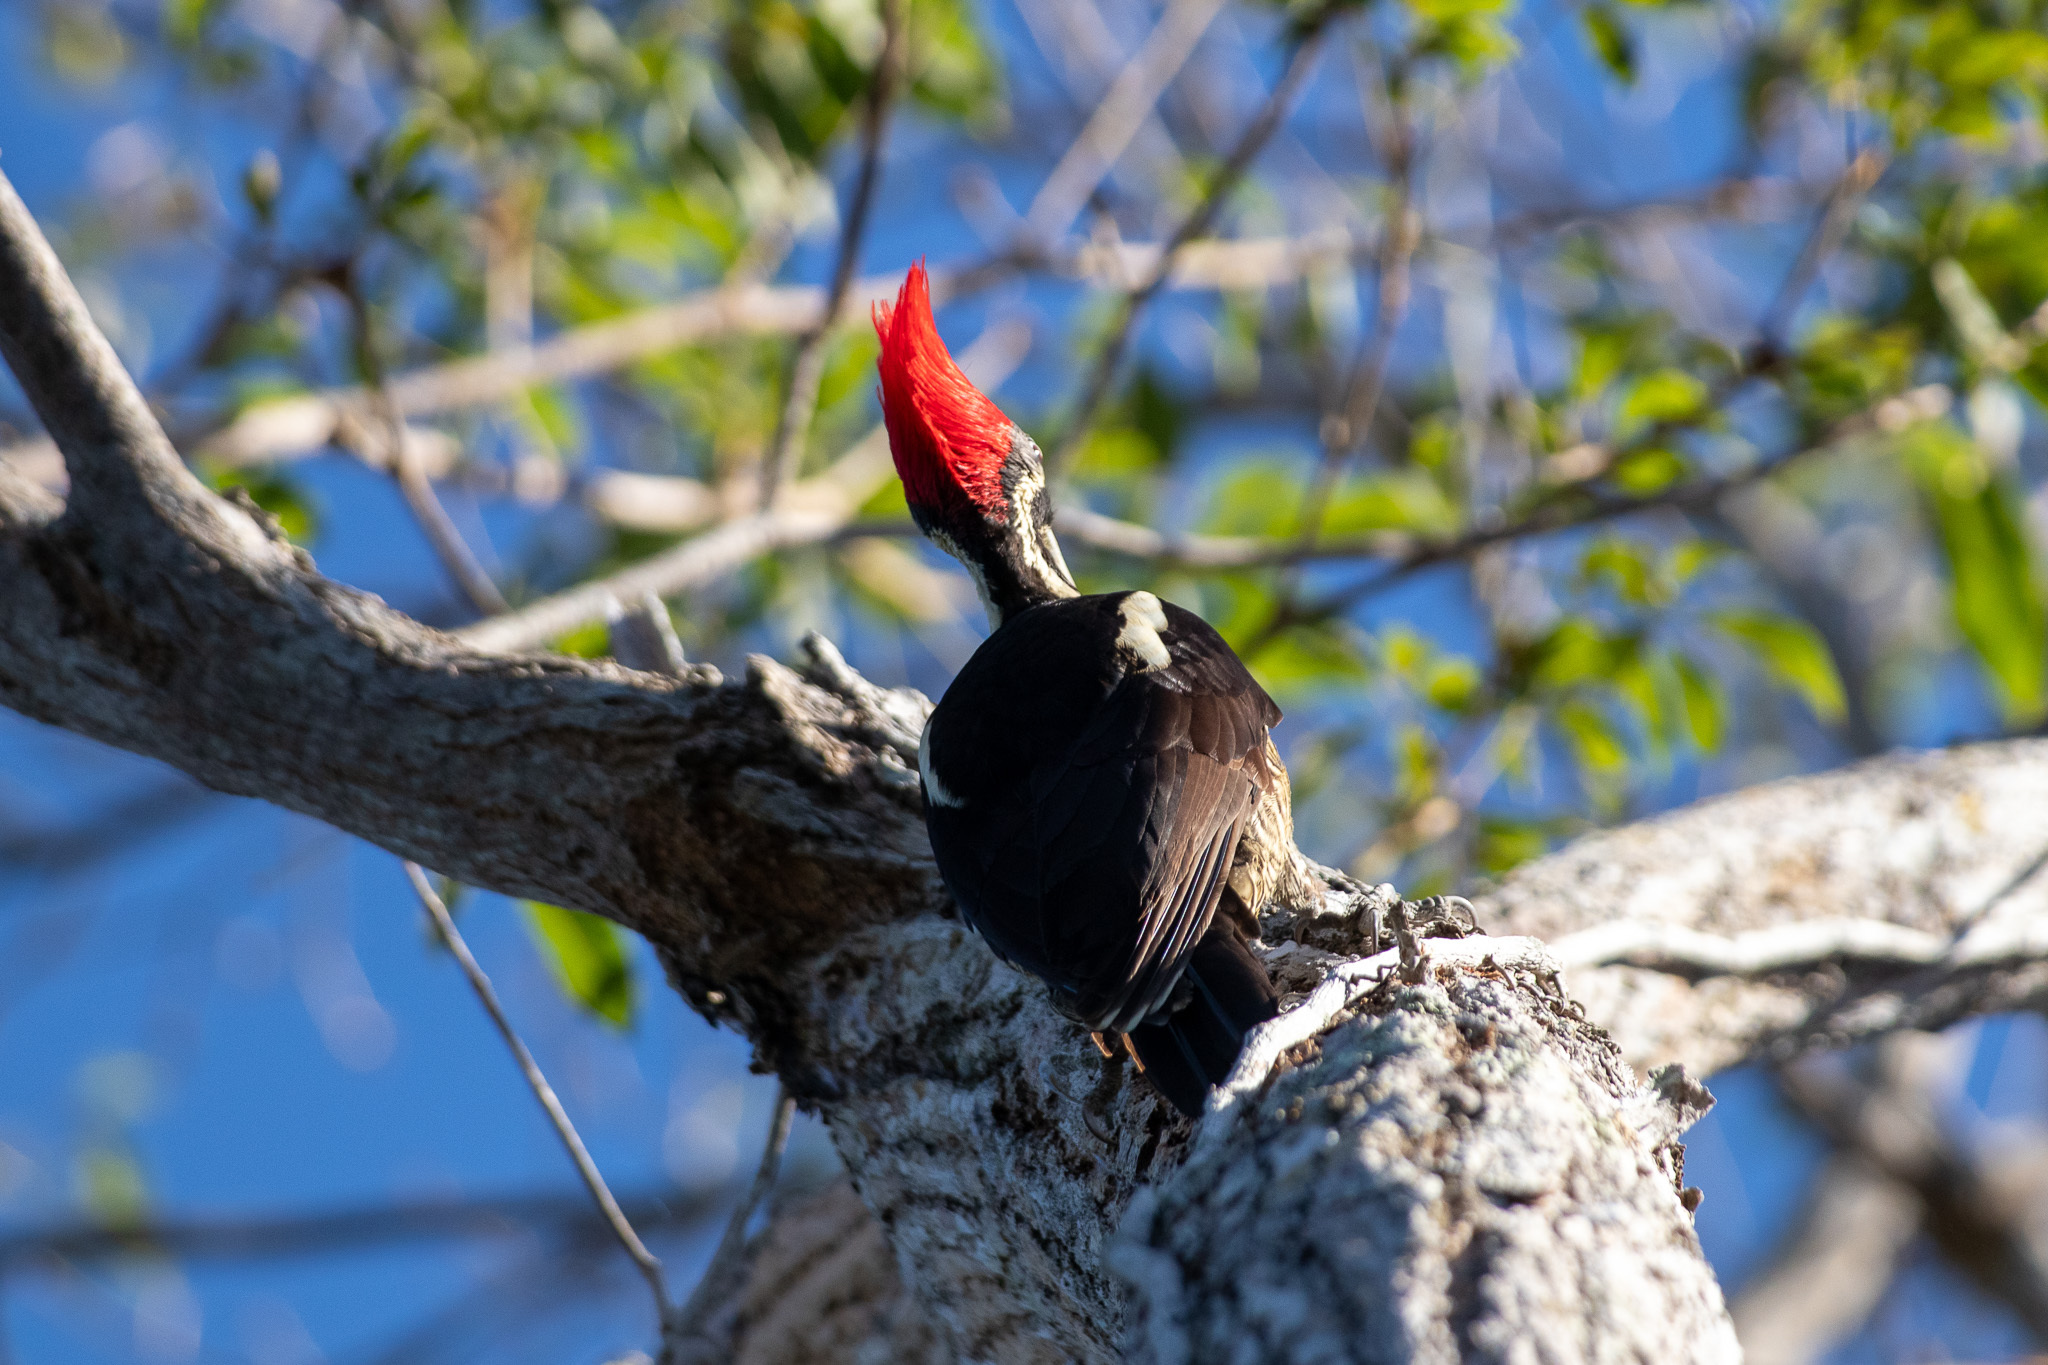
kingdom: Animalia
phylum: Chordata
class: Aves
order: Piciformes
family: Picidae
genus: Dryocopus
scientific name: Dryocopus lineatus
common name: Lineated woodpecker
